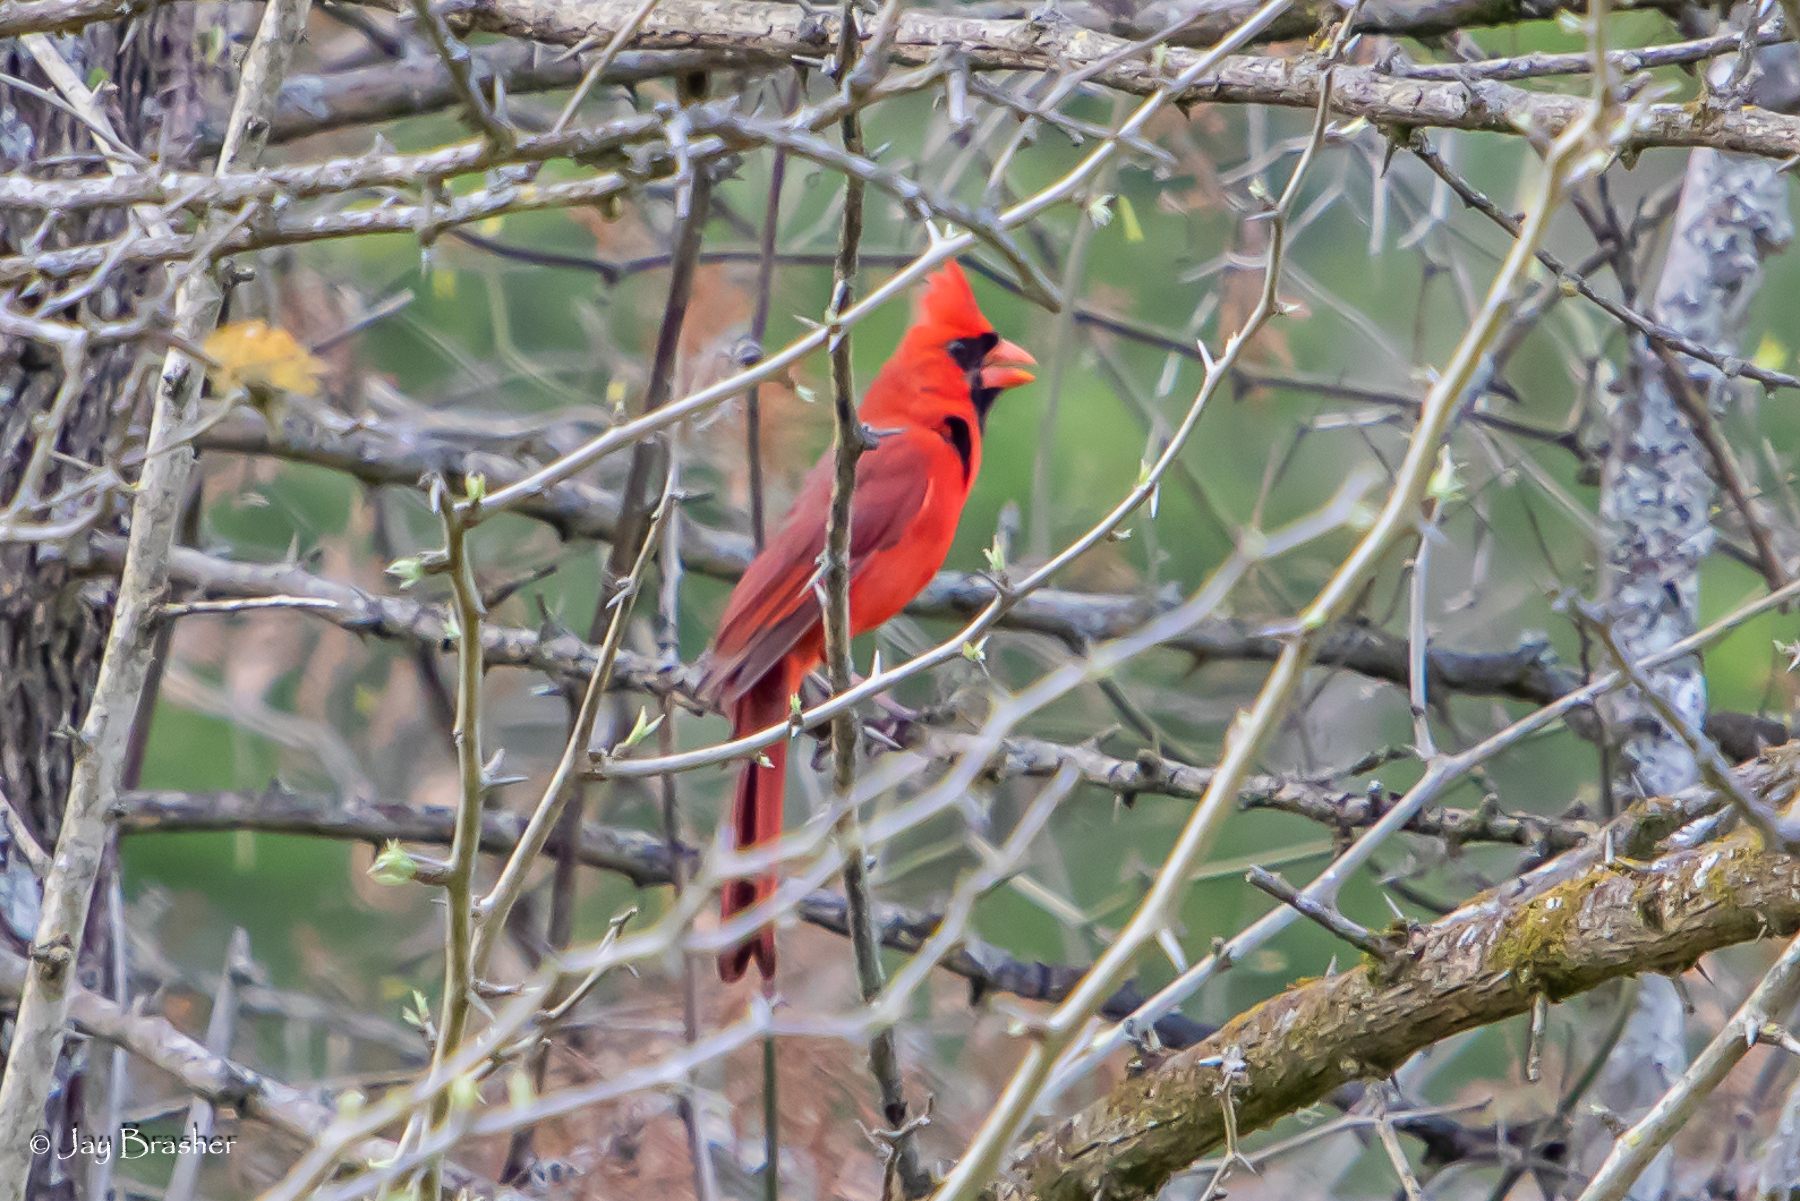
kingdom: Animalia
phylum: Chordata
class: Aves
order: Passeriformes
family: Cardinalidae
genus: Cardinalis
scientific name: Cardinalis cardinalis
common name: Northern cardinal
